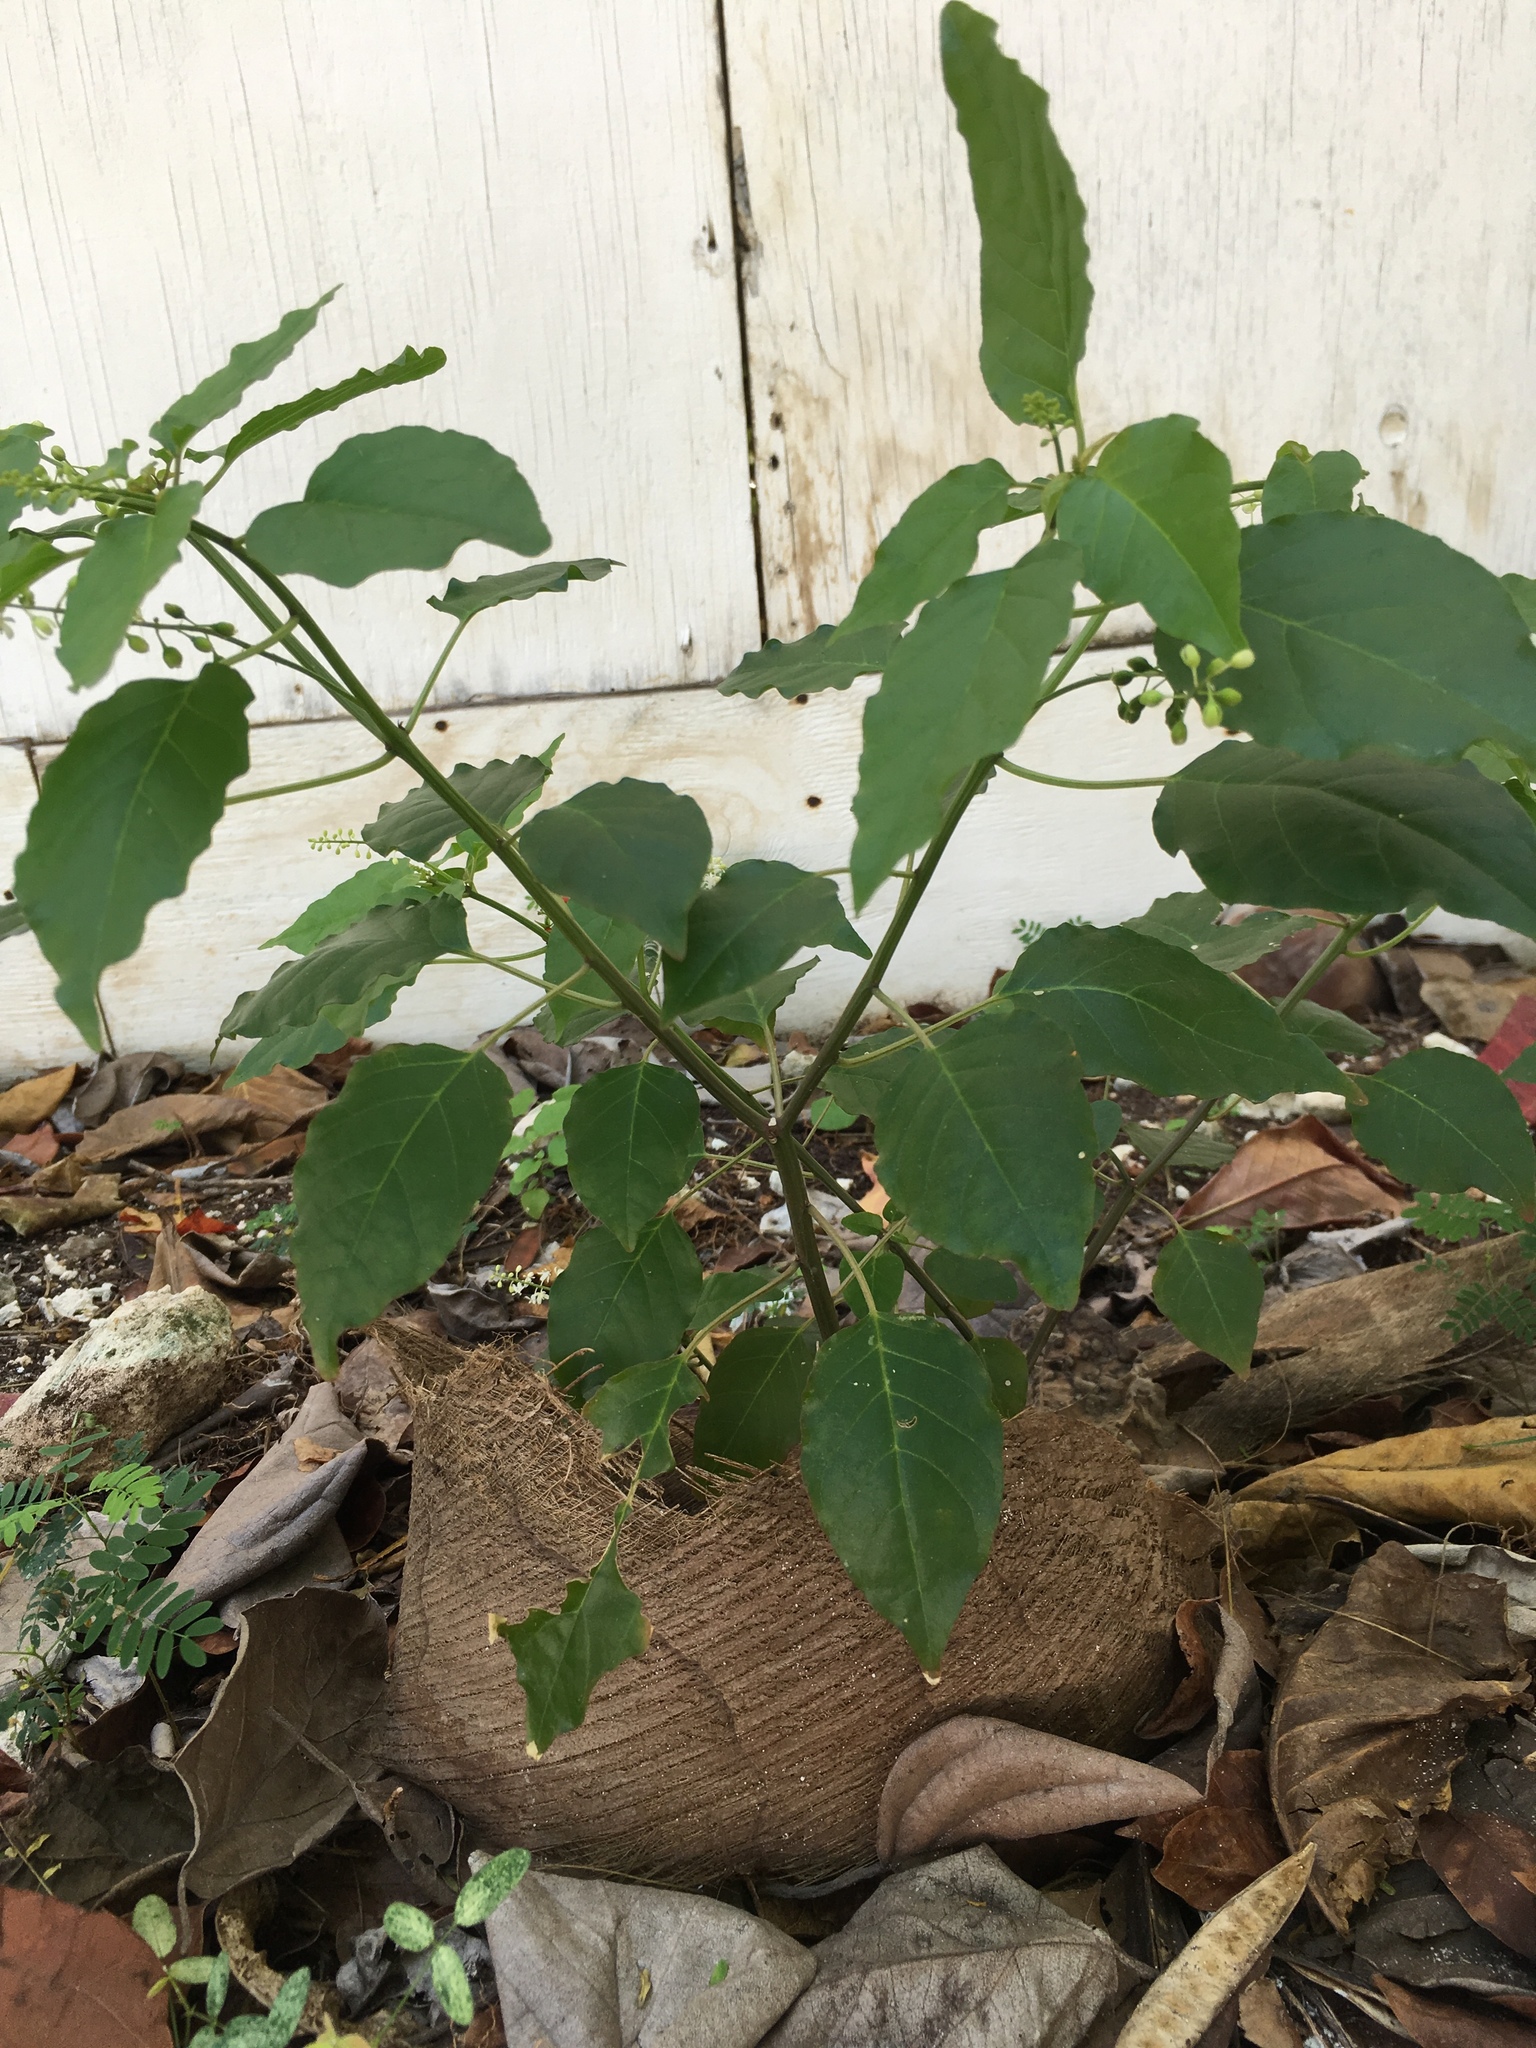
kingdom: Plantae
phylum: Tracheophyta
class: Magnoliopsida
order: Caryophyllales
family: Phytolaccaceae
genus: Rivina
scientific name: Rivina humilis
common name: Rougeplant
